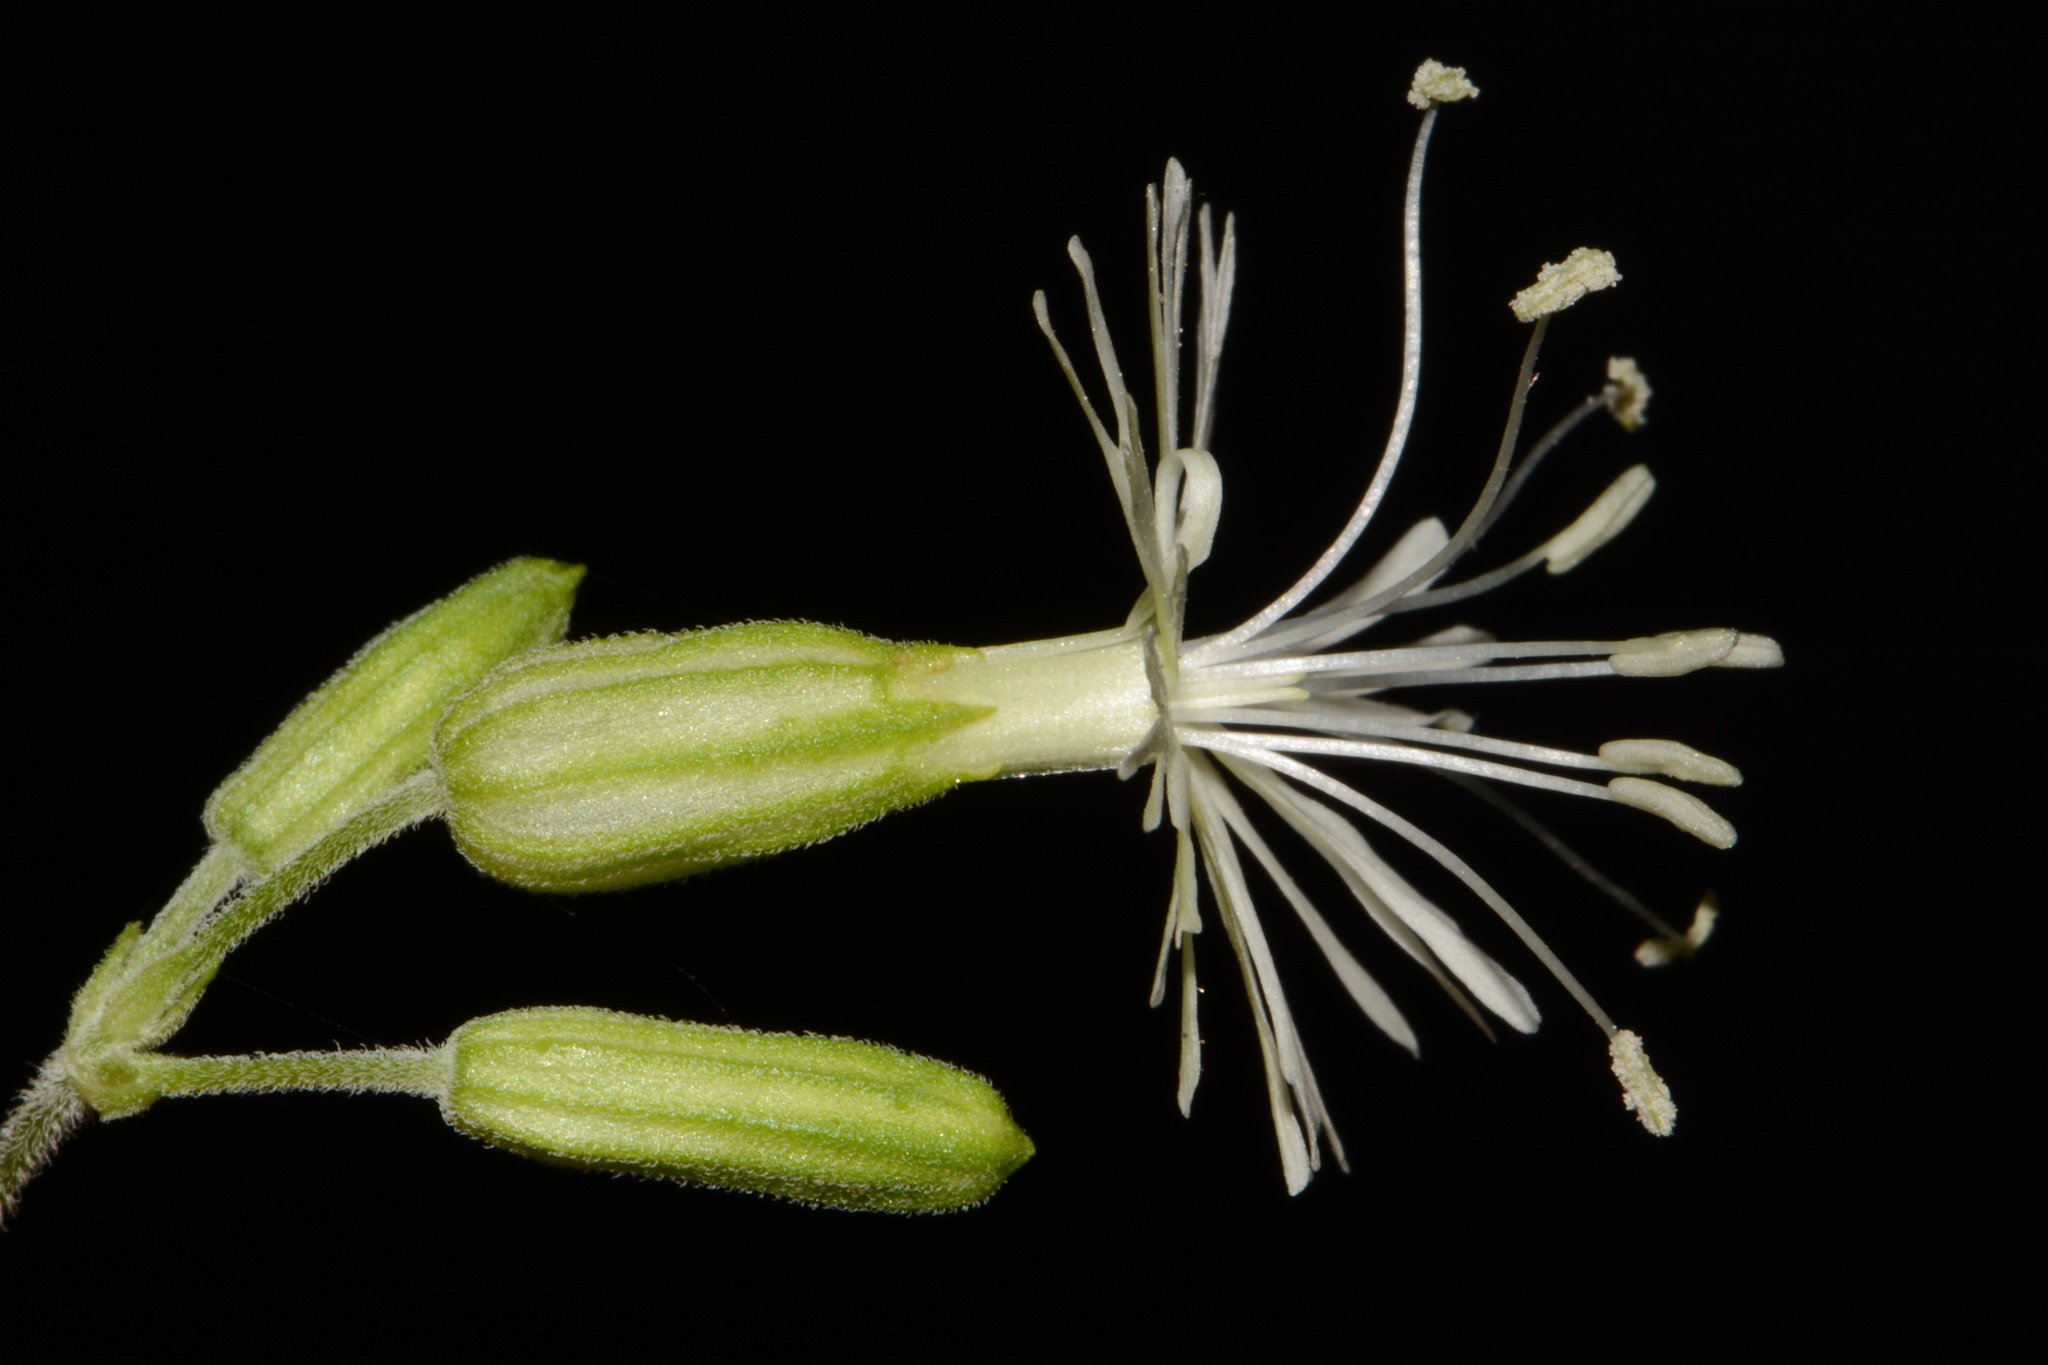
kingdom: Plantae
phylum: Tracheophyta
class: Magnoliopsida
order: Caryophyllales
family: Caryophyllaceae
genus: Silene
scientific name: Silene ovata
